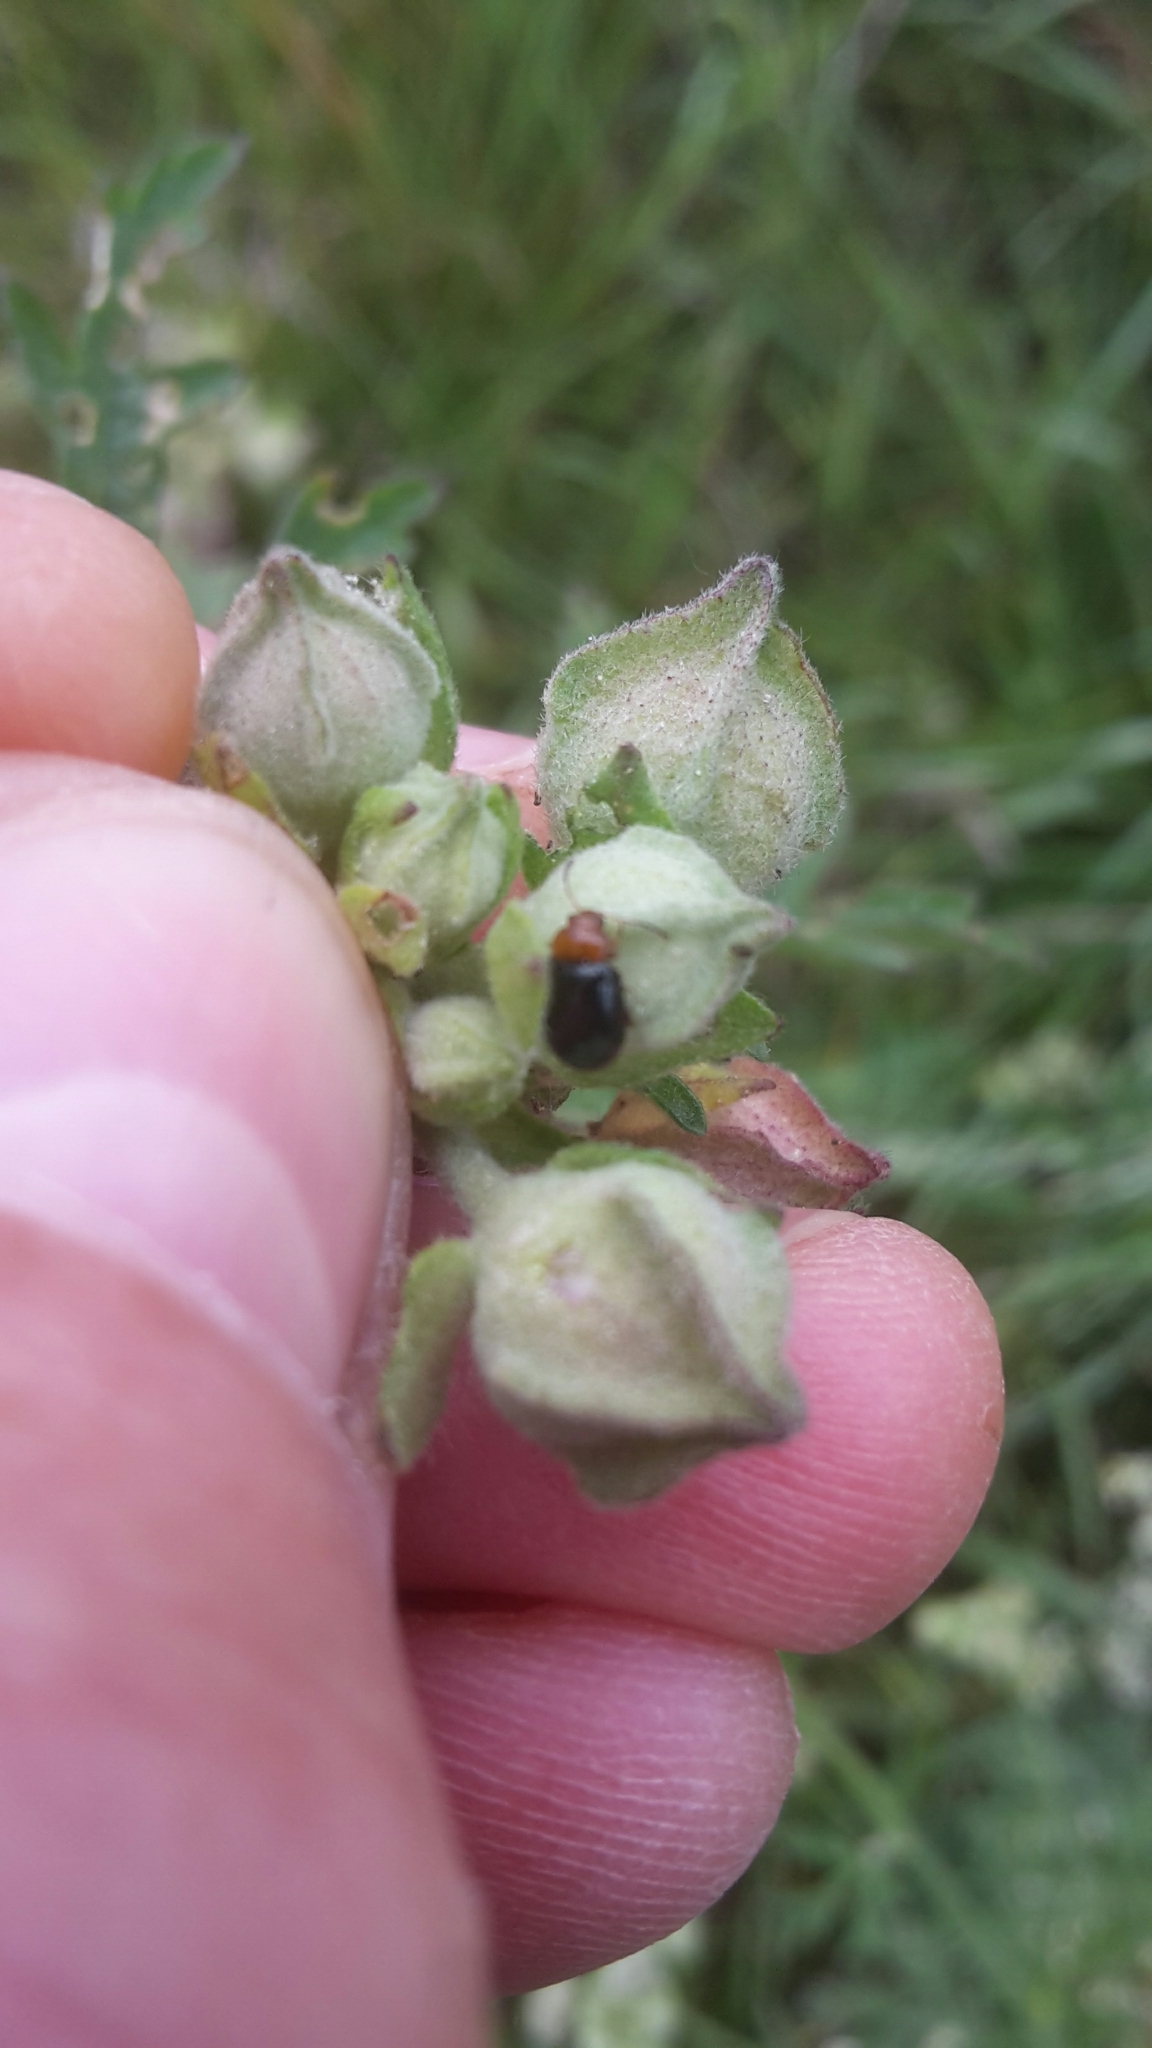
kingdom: Animalia
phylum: Arthropoda
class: Insecta
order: Coleoptera
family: Chrysomelidae
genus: Podagrica
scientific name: Podagrica fuscicornis
